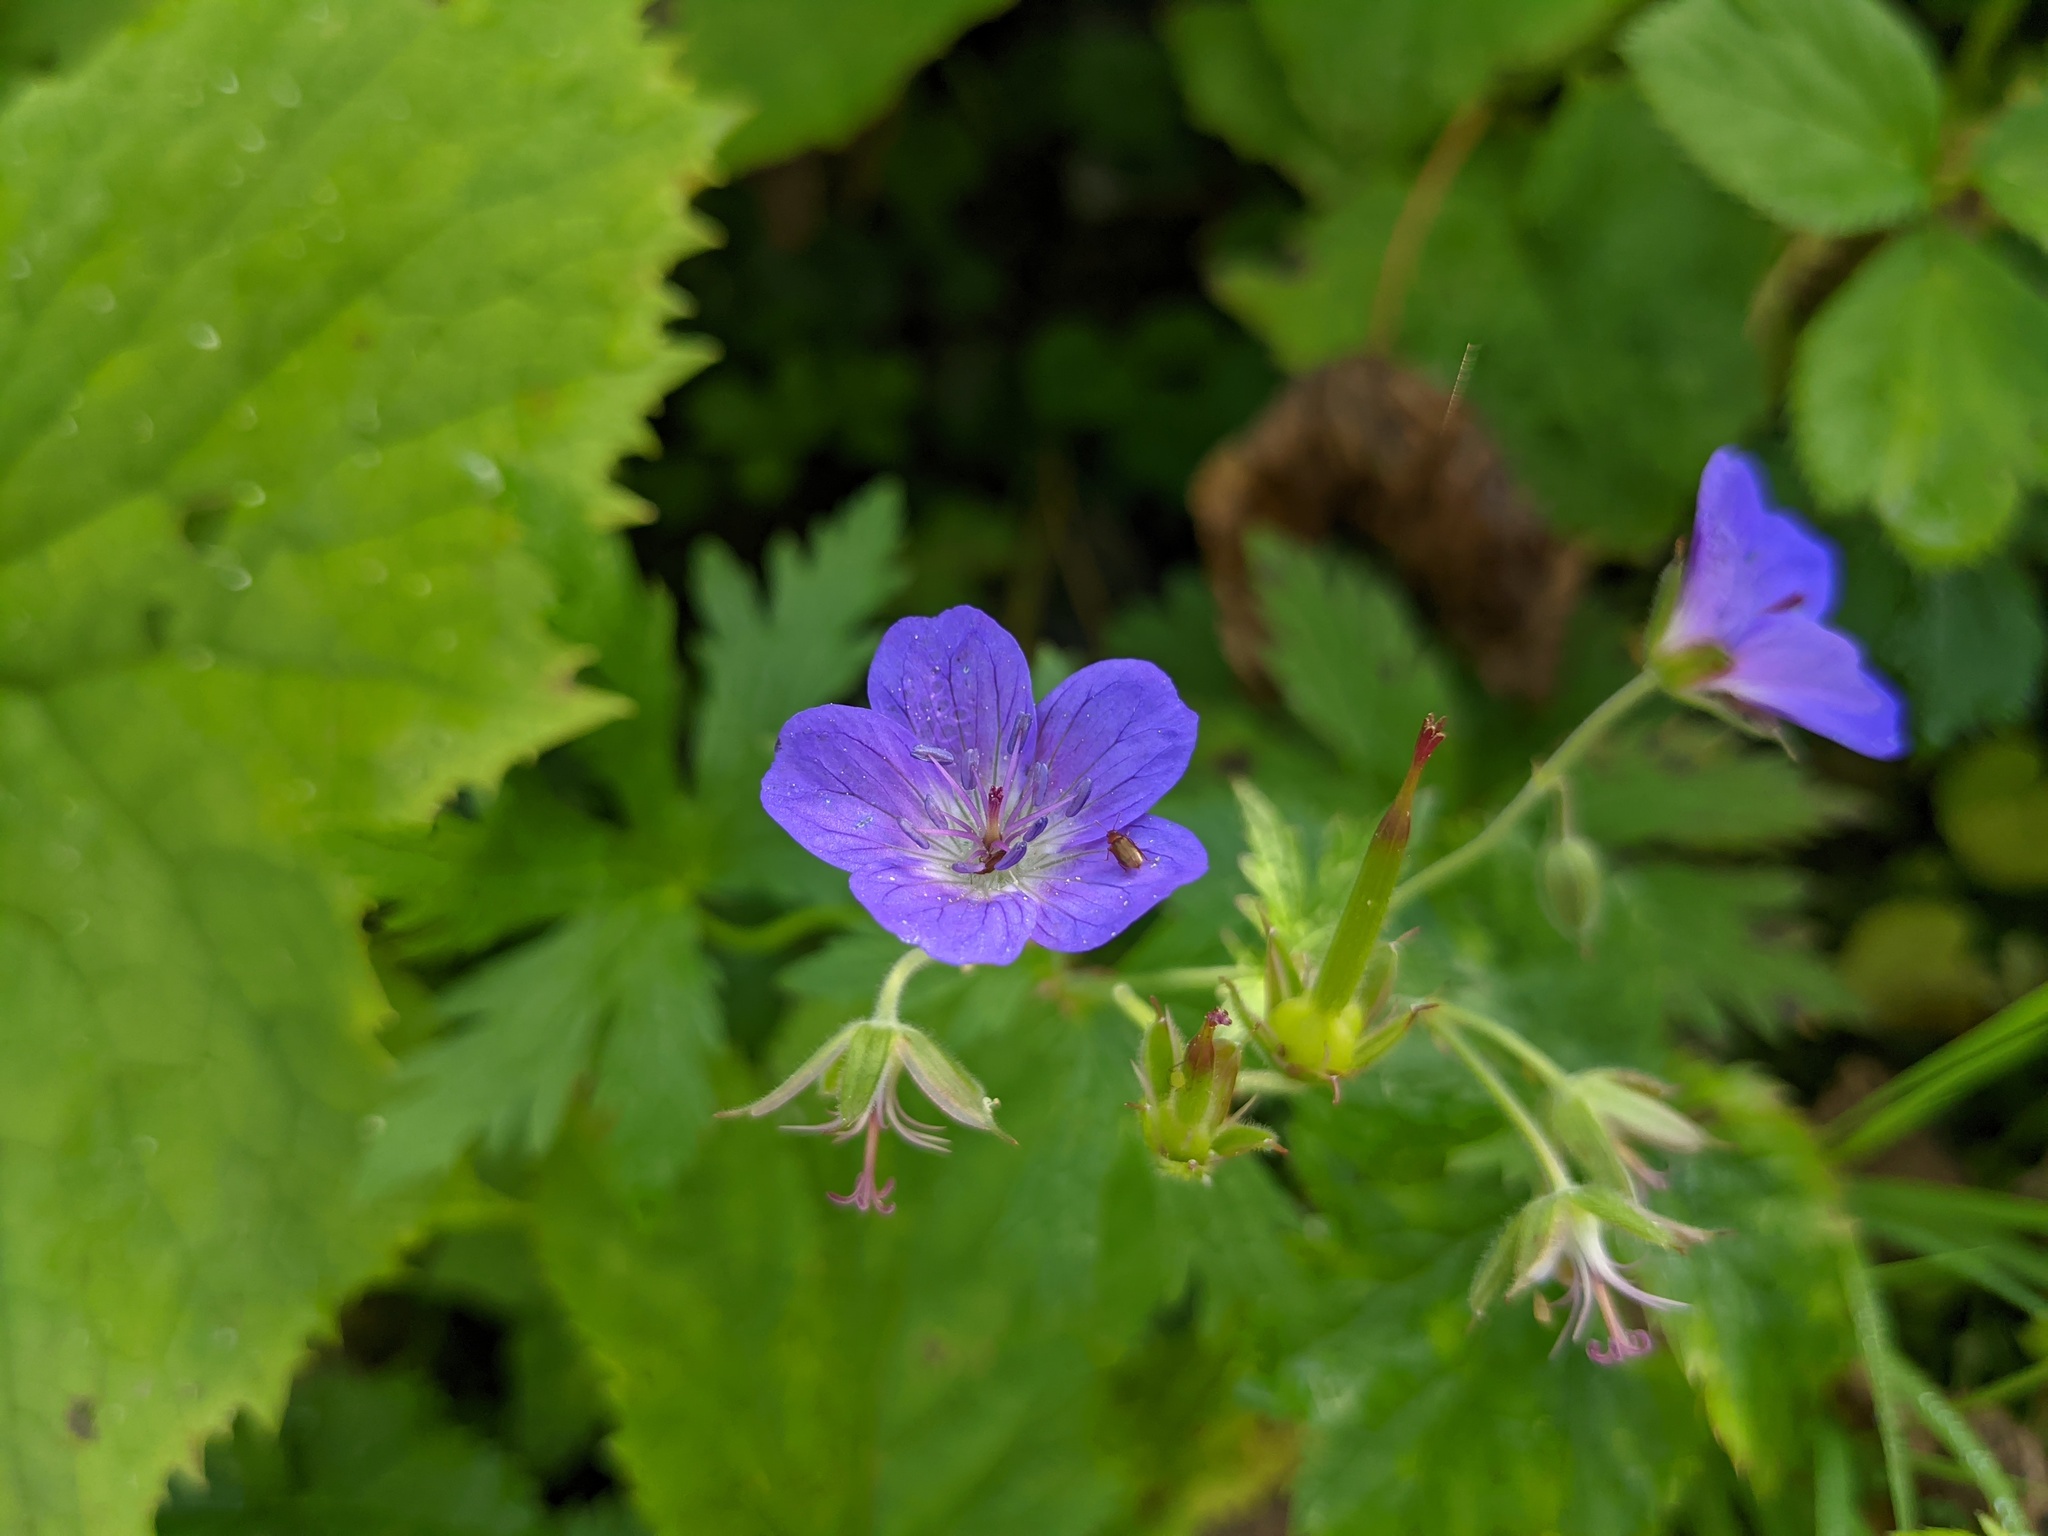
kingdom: Plantae
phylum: Tracheophyta
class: Magnoliopsida
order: Geraniales
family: Geraniaceae
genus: Geranium
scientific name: Geranium sylvaticum
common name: Wood crane's-bill
